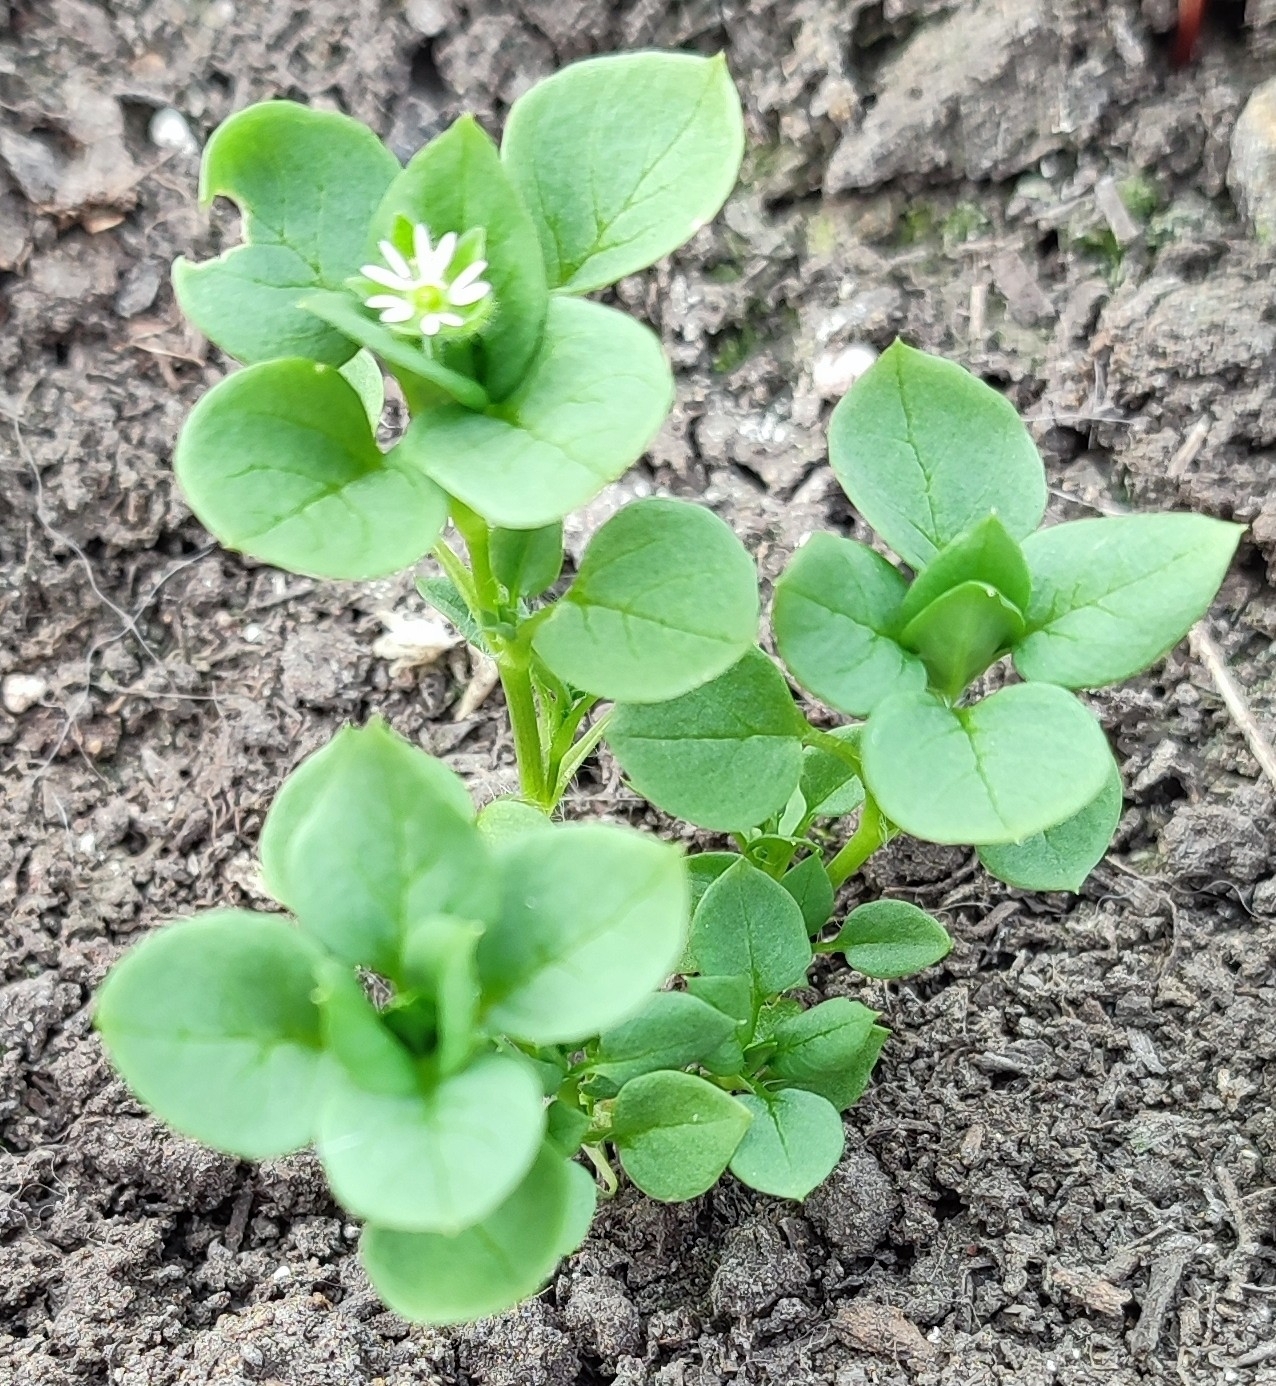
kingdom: Plantae
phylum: Tracheophyta
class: Magnoliopsida
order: Caryophyllales
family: Caryophyllaceae
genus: Stellaria
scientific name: Stellaria media
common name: Common chickweed
